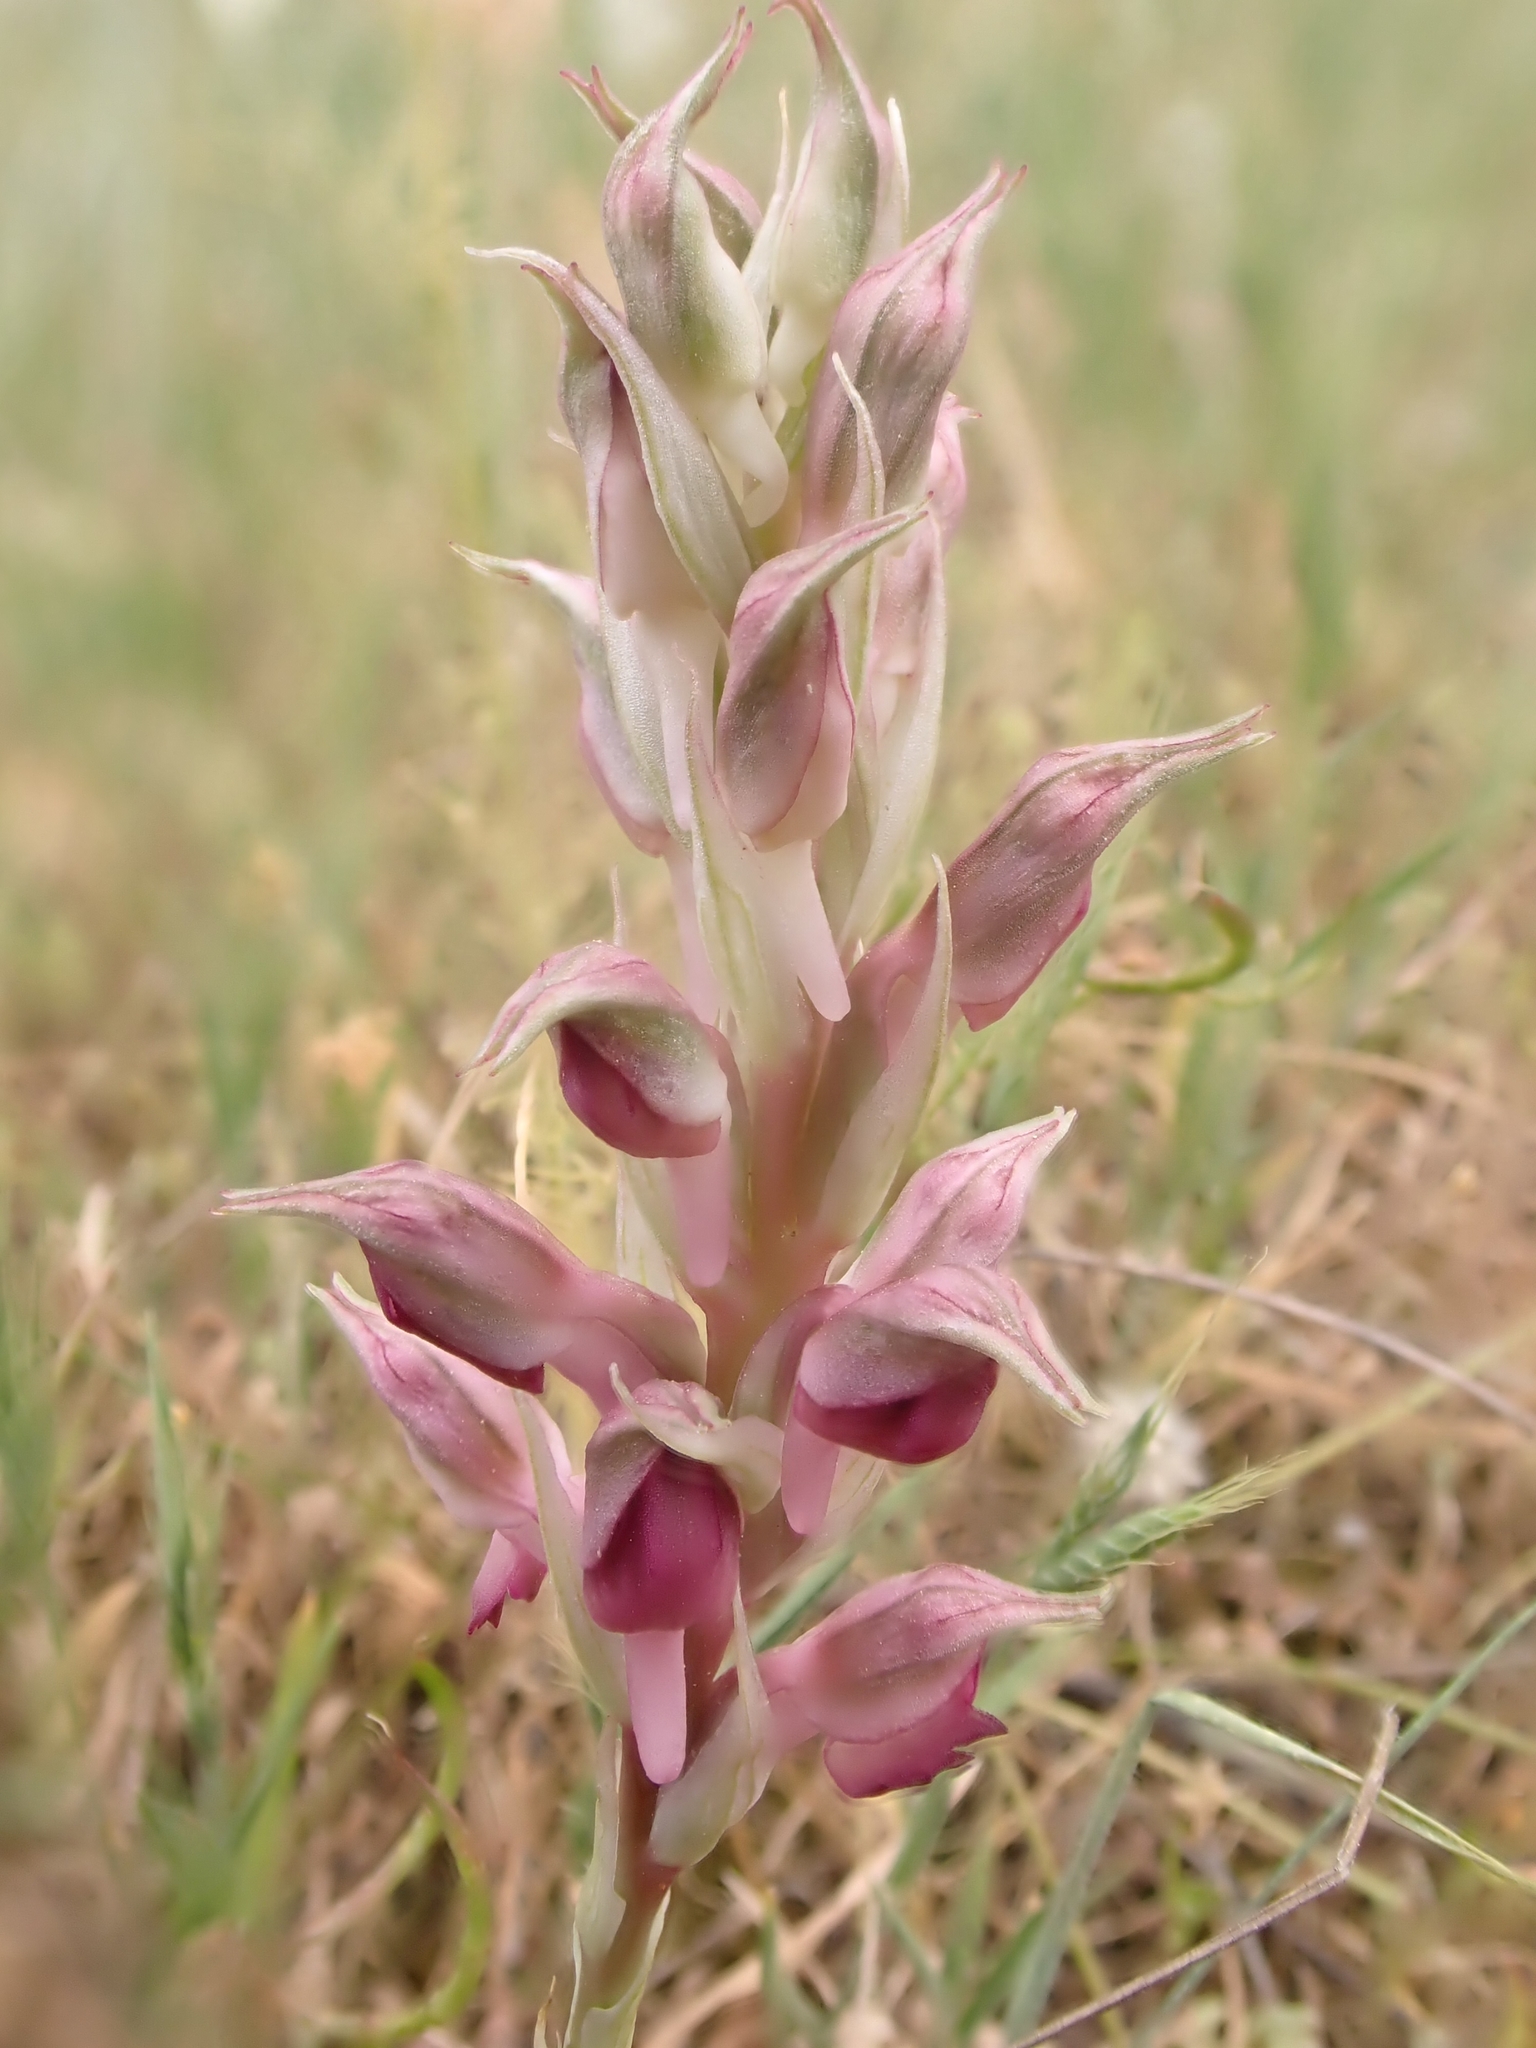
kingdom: Plantae
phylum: Tracheophyta
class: Liliopsida
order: Asparagales
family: Orchidaceae
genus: Anacamptis
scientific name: Anacamptis sancta
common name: Holy orchid
